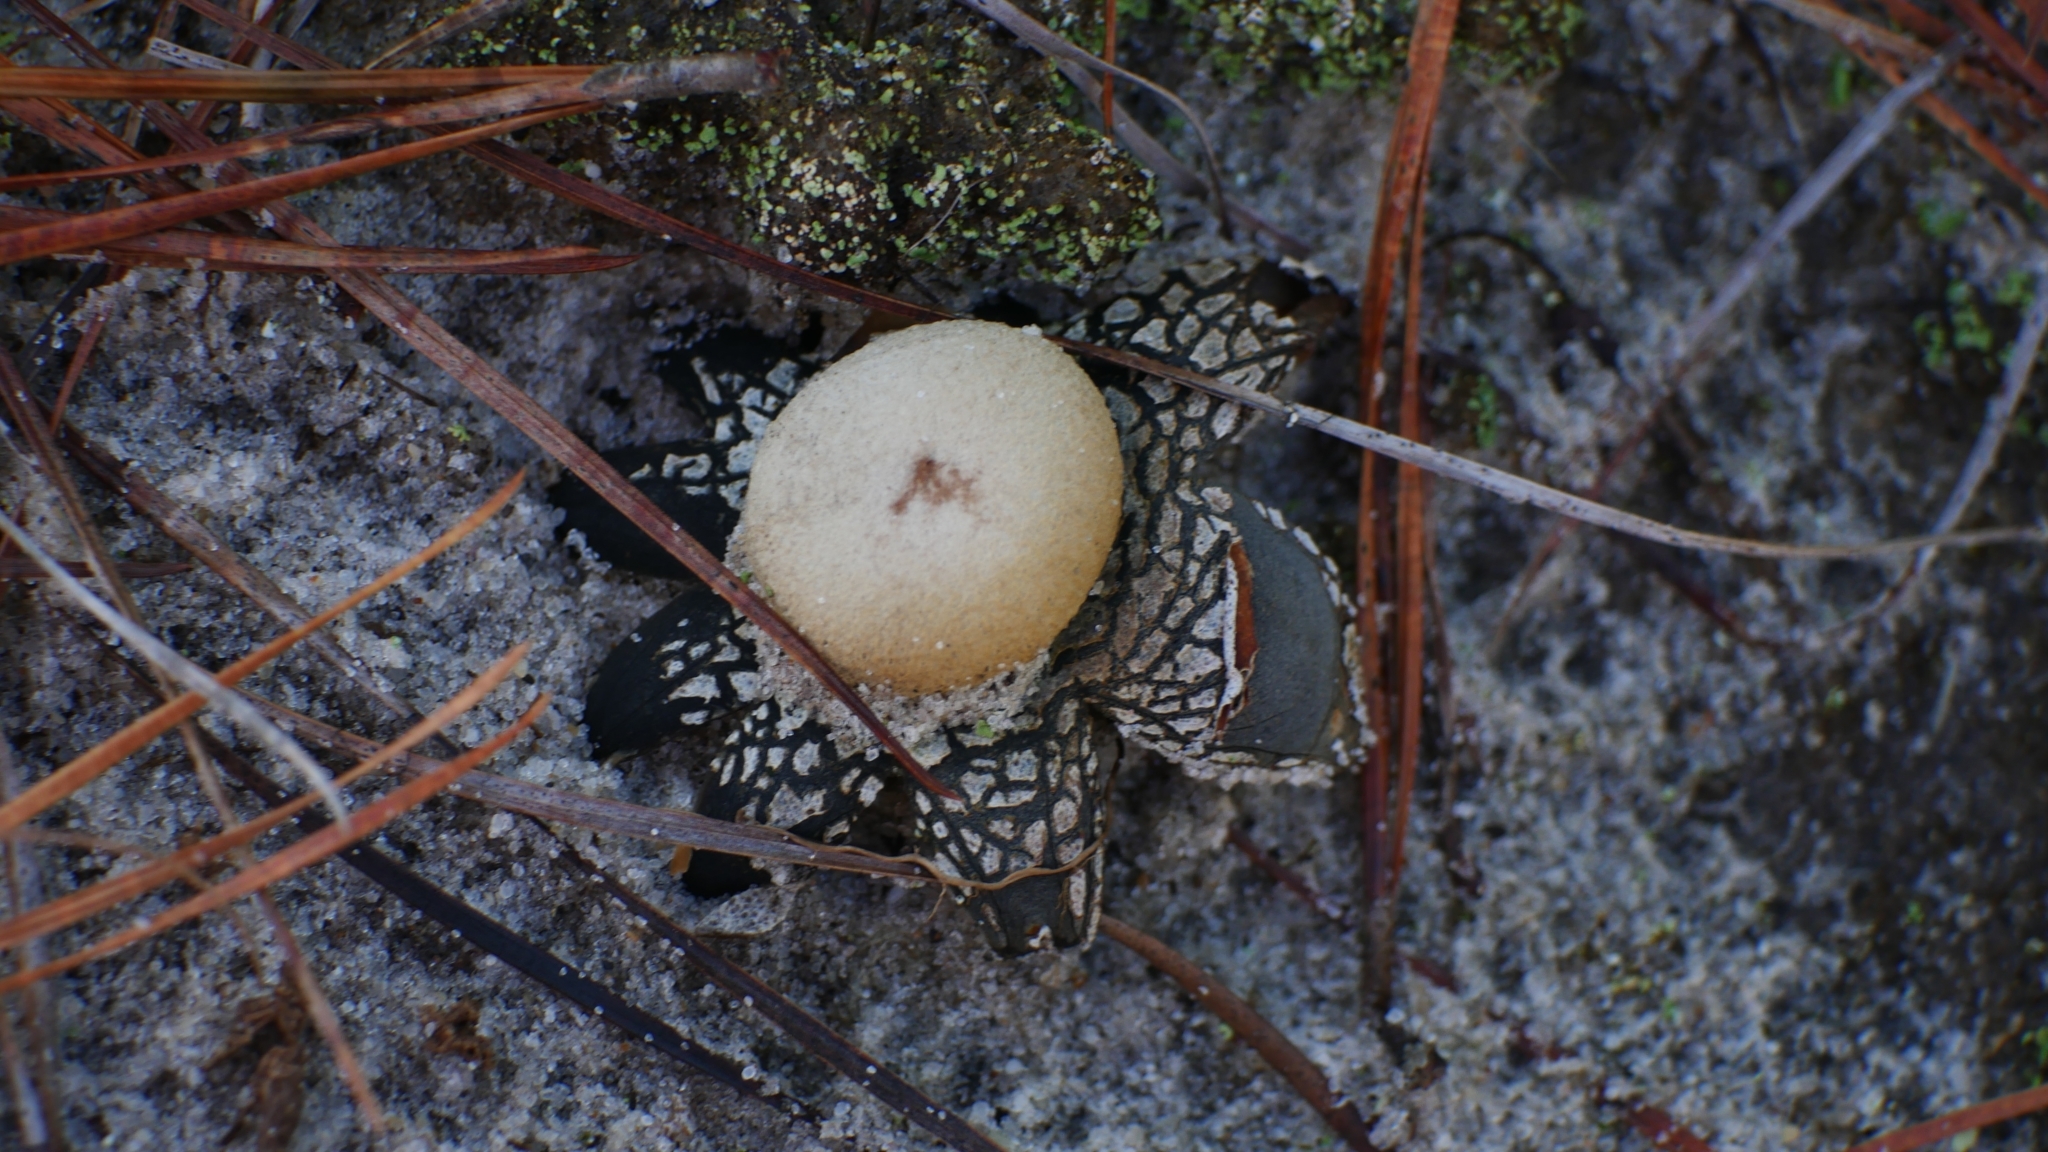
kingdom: Fungi
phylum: Basidiomycota
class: Agaricomycetes
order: Boletales
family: Diplocystidiaceae
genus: Astraeus
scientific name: Astraeus smithii
